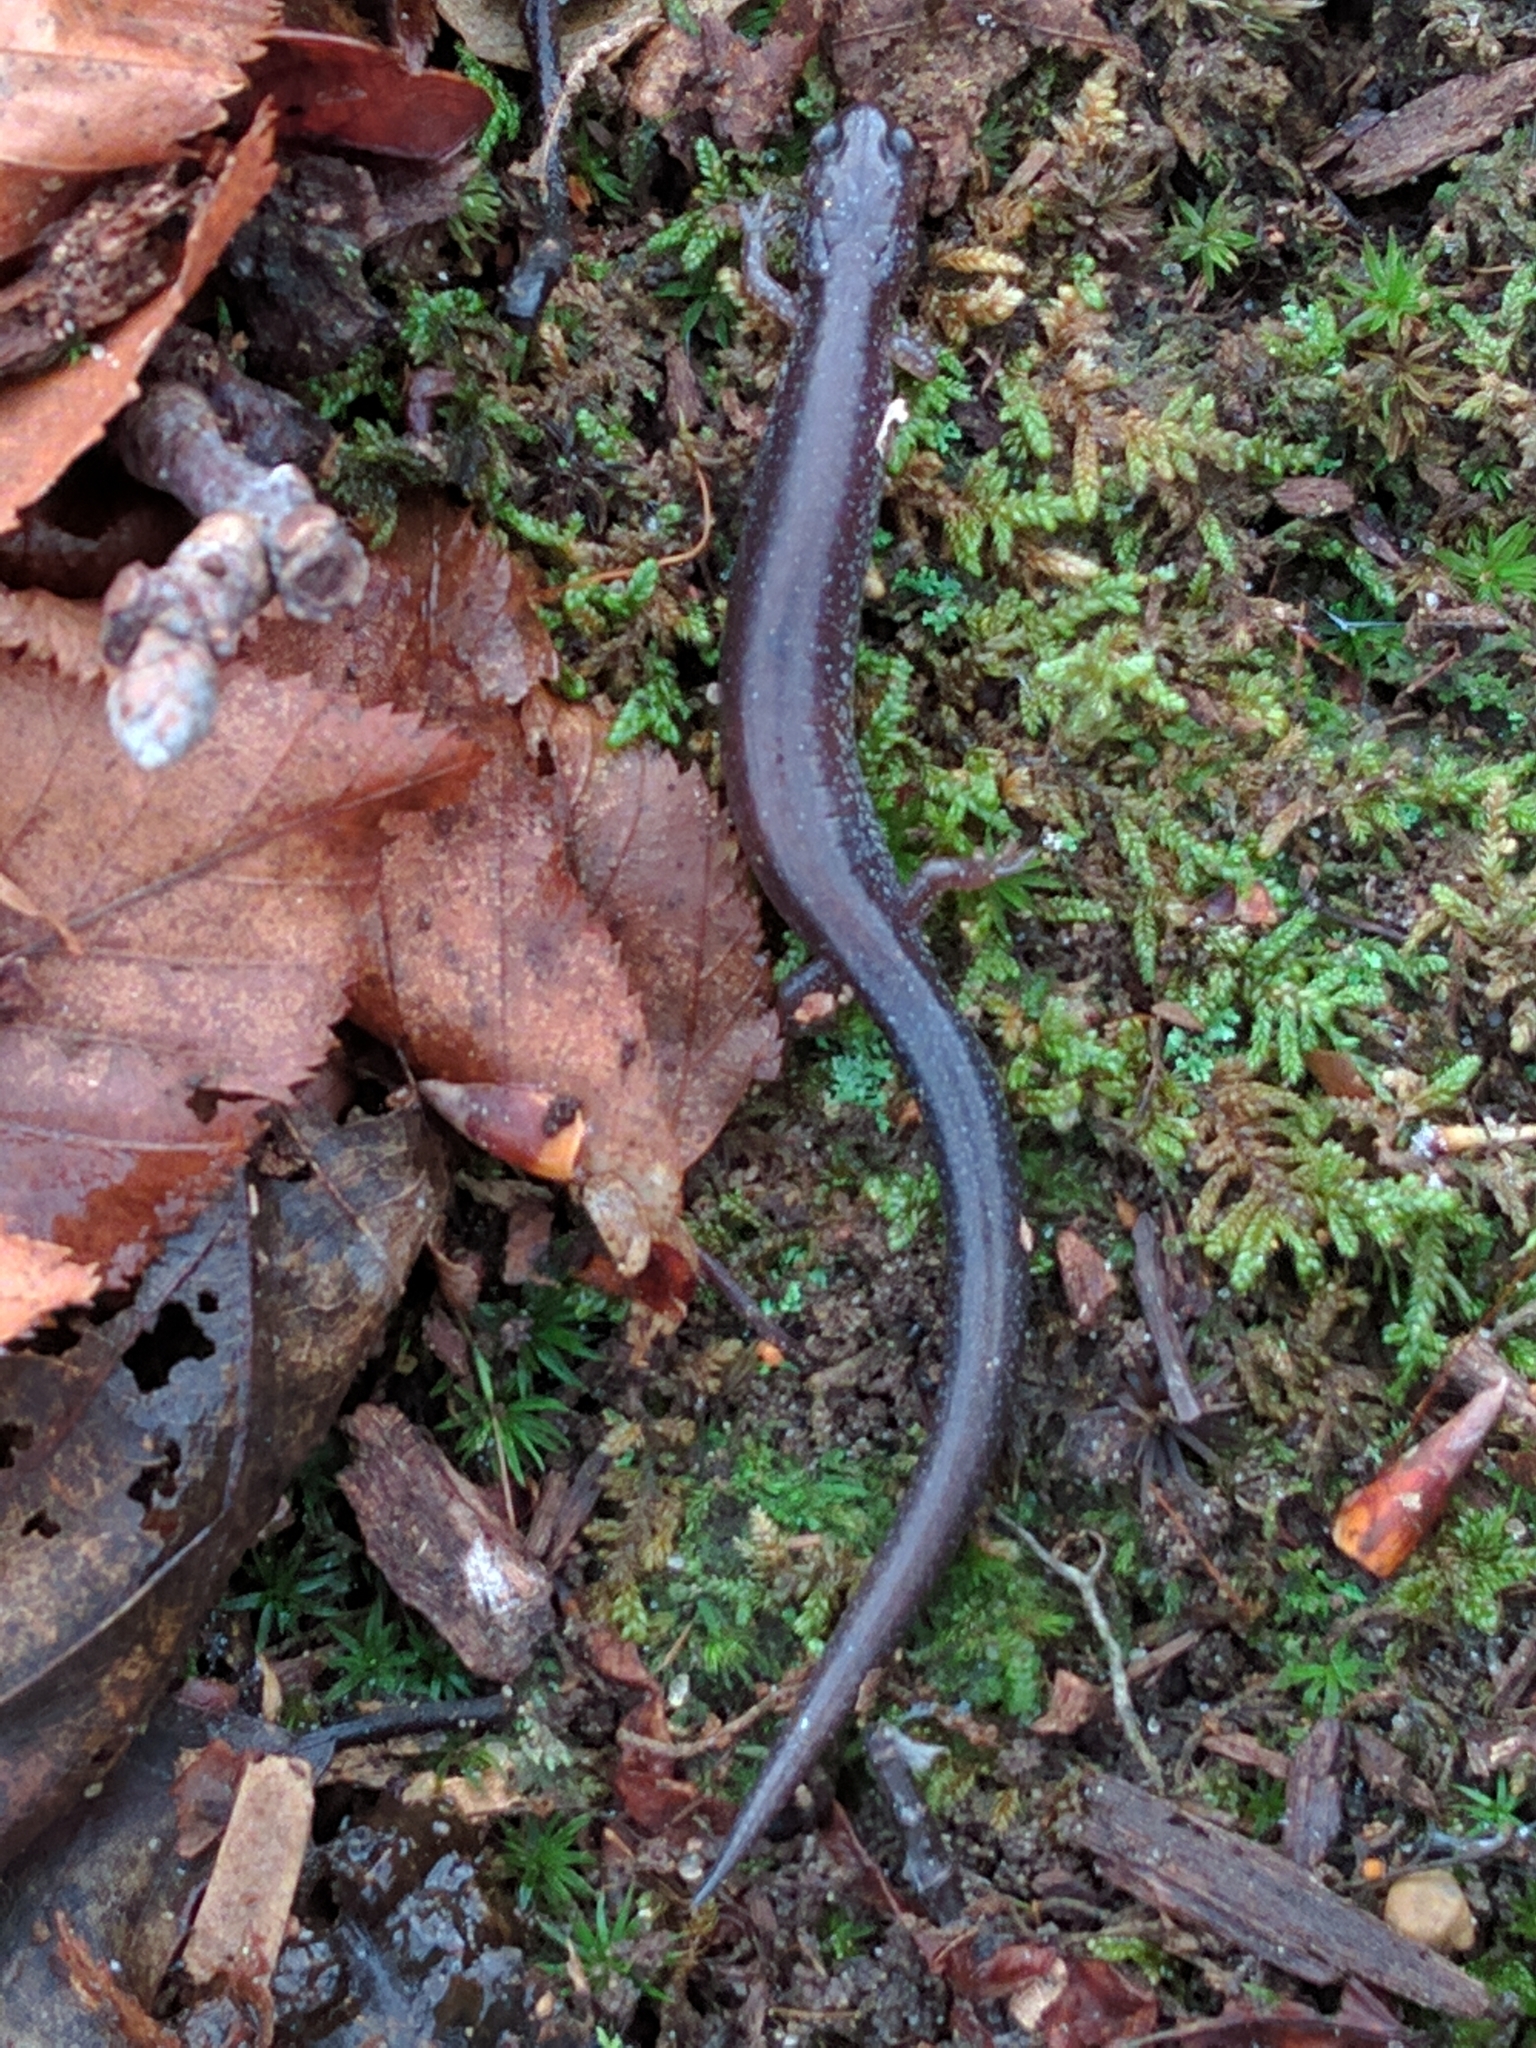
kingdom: Animalia
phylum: Chordata
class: Amphibia
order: Caudata
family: Plethodontidae
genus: Plethodon
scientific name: Plethodon cinereus
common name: Redback salamander
